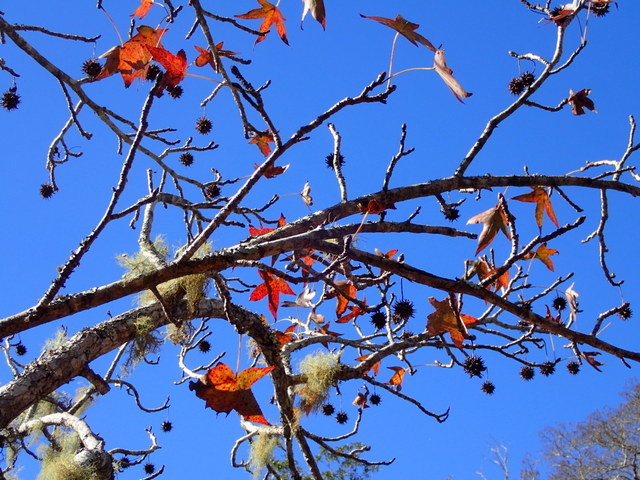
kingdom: Plantae
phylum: Tracheophyta
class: Magnoliopsida
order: Saxifragales
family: Altingiaceae
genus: Liquidambar
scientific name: Liquidambar styraciflua
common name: Sweet gum
